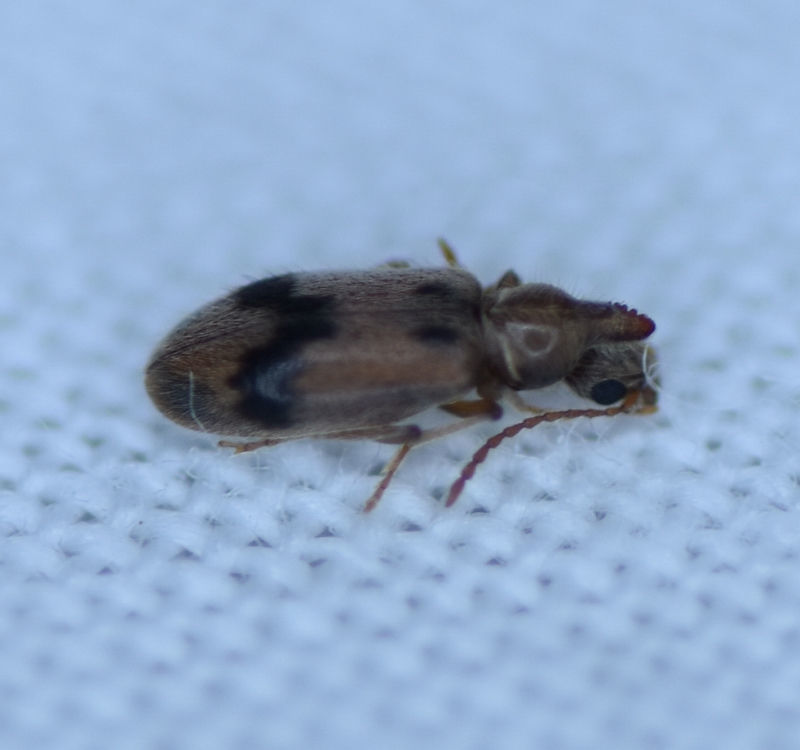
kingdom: Animalia
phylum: Arthropoda
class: Insecta
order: Coleoptera
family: Anthicidae
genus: Notoxus
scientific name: Notoxus desertus
